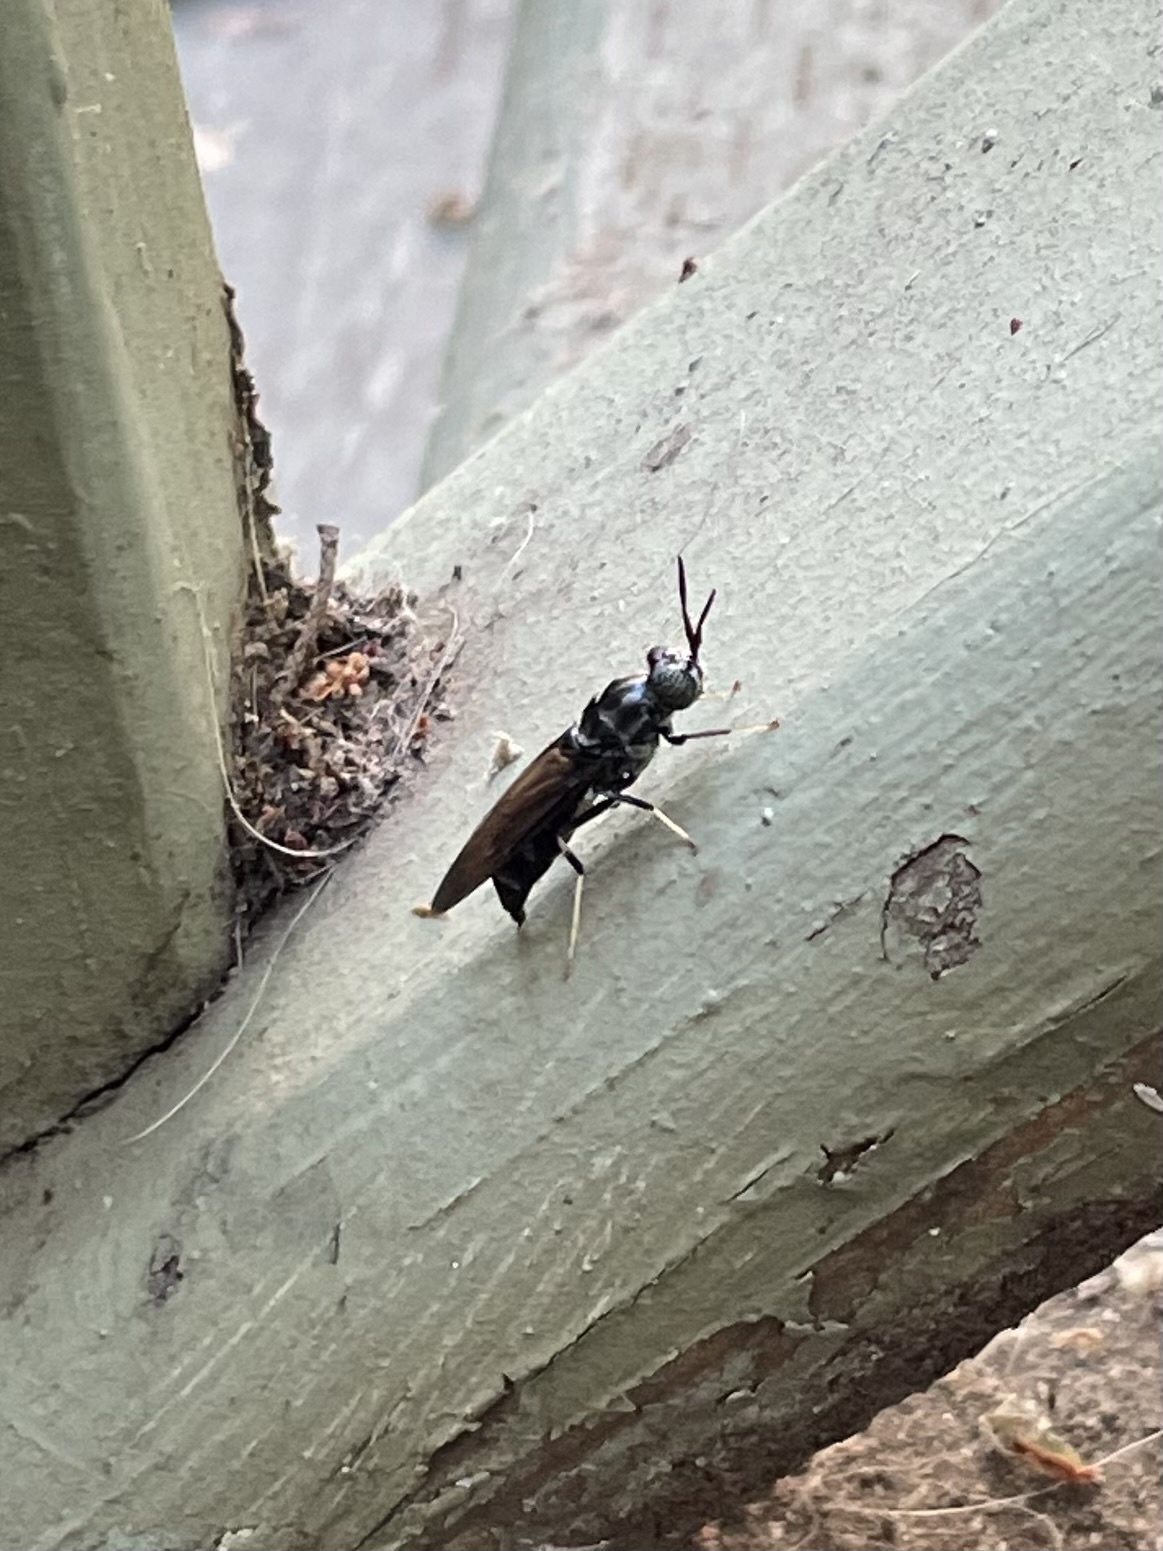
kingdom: Animalia
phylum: Arthropoda
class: Insecta
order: Diptera
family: Stratiomyidae
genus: Hermetia
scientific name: Hermetia illucens
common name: Black soldier fly
